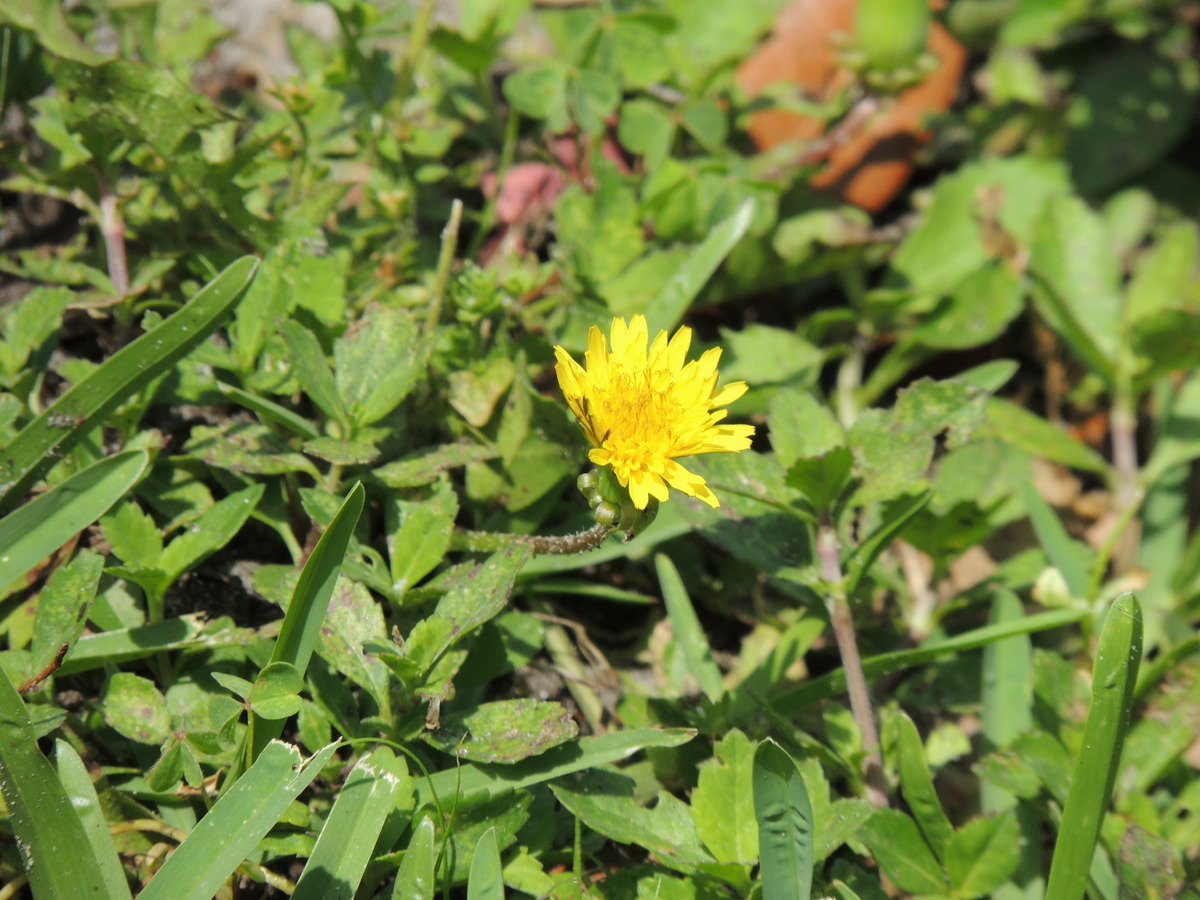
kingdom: Plantae
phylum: Tracheophyta
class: Magnoliopsida
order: Asterales
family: Asteraceae
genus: Taraxacum
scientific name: Taraxacum officinale
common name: Common dandelion
